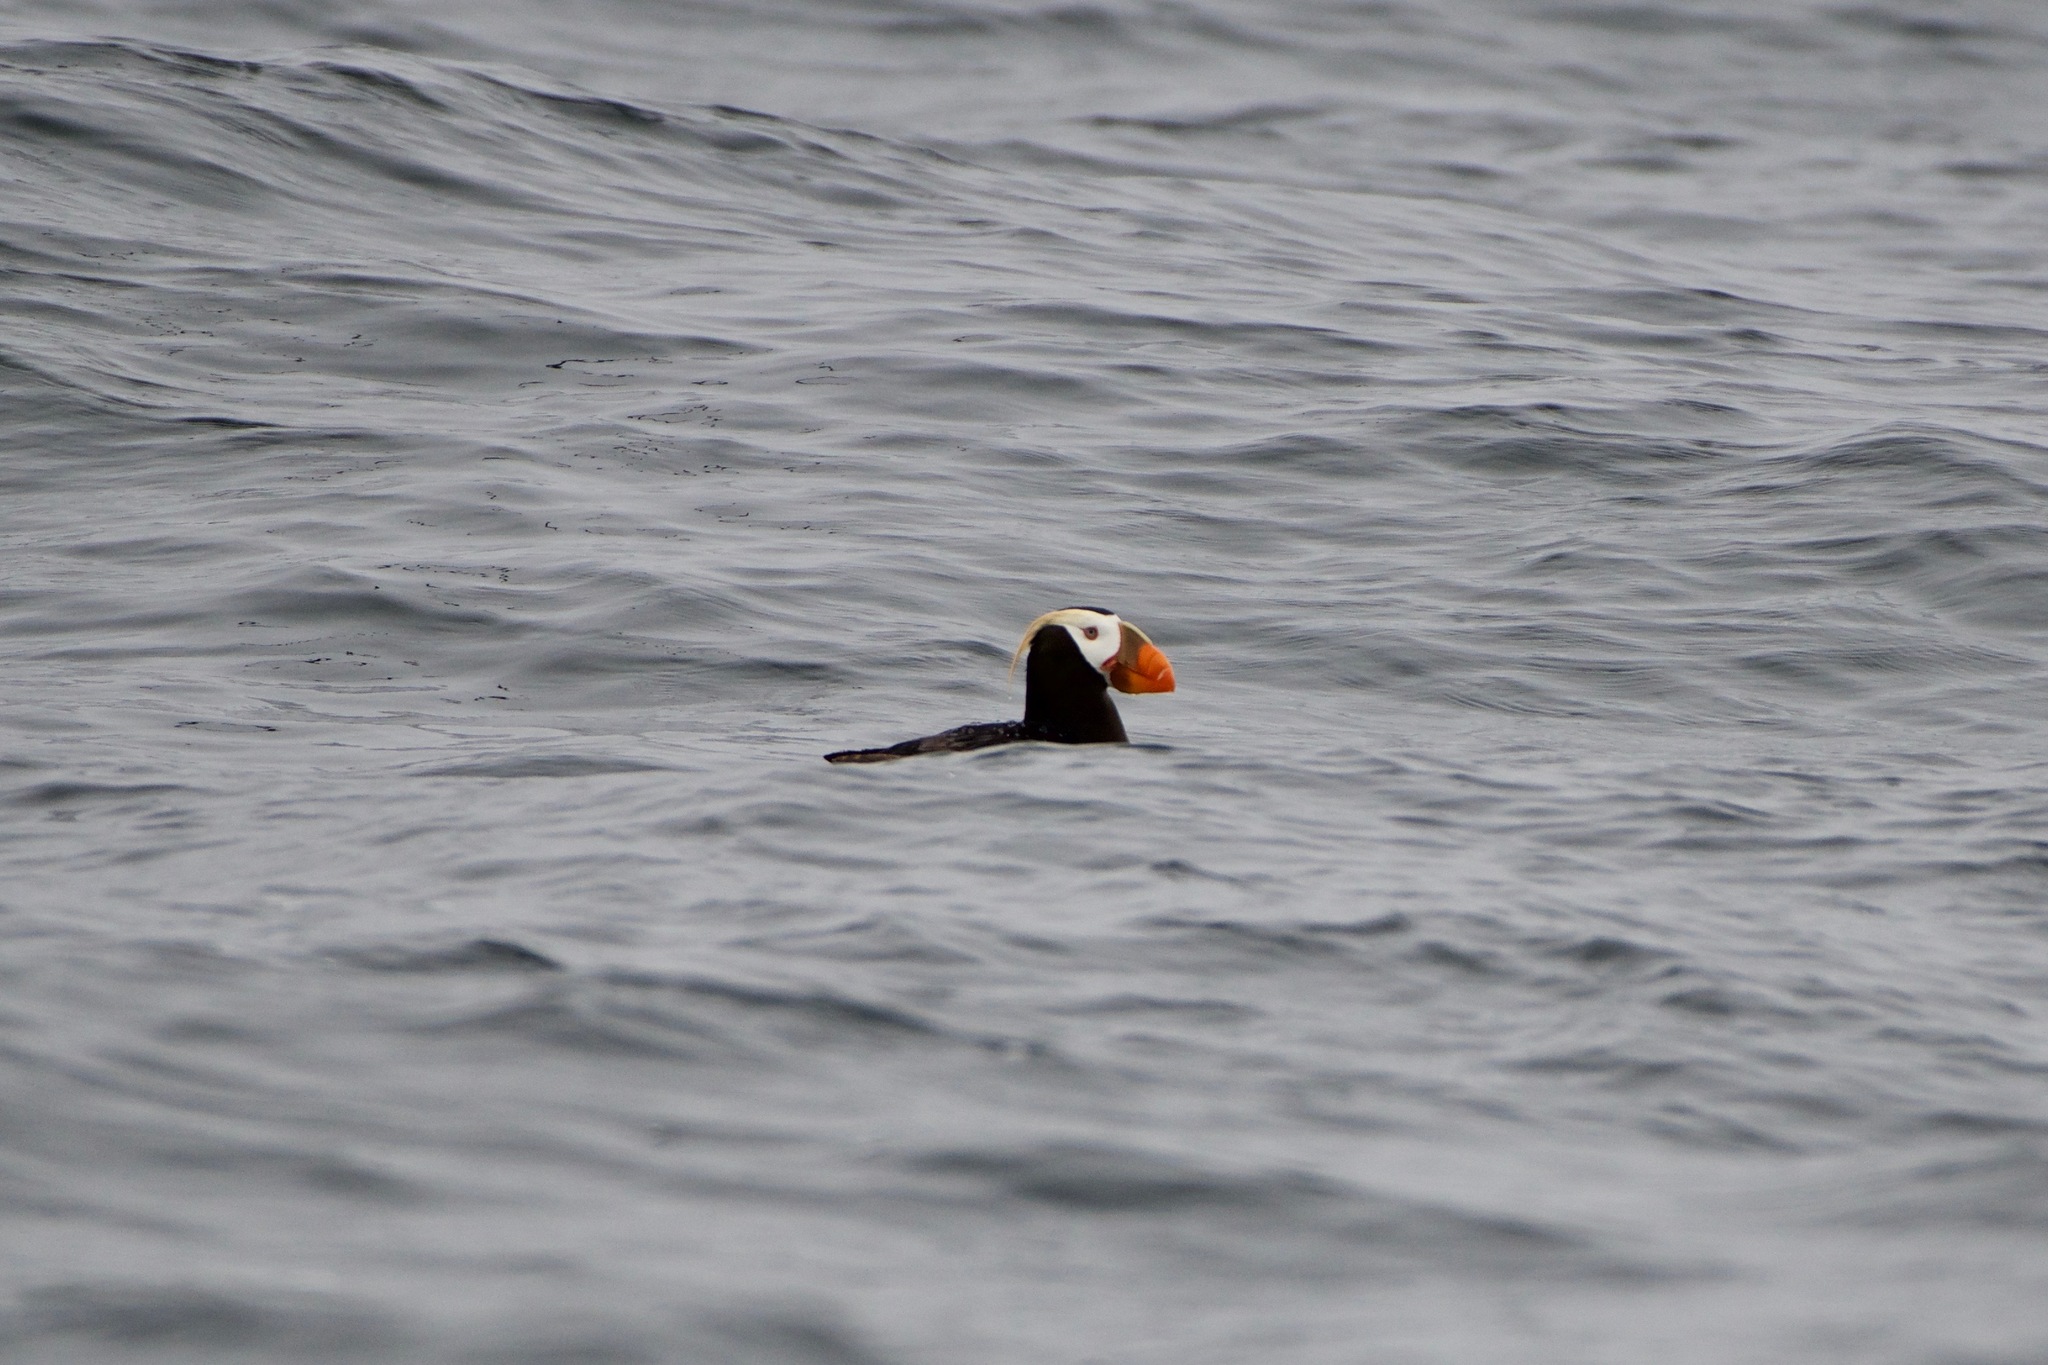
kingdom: Animalia
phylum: Chordata
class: Aves
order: Charadriiformes
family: Alcidae
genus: Fratercula
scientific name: Fratercula cirrhata
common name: Tufted puffin
